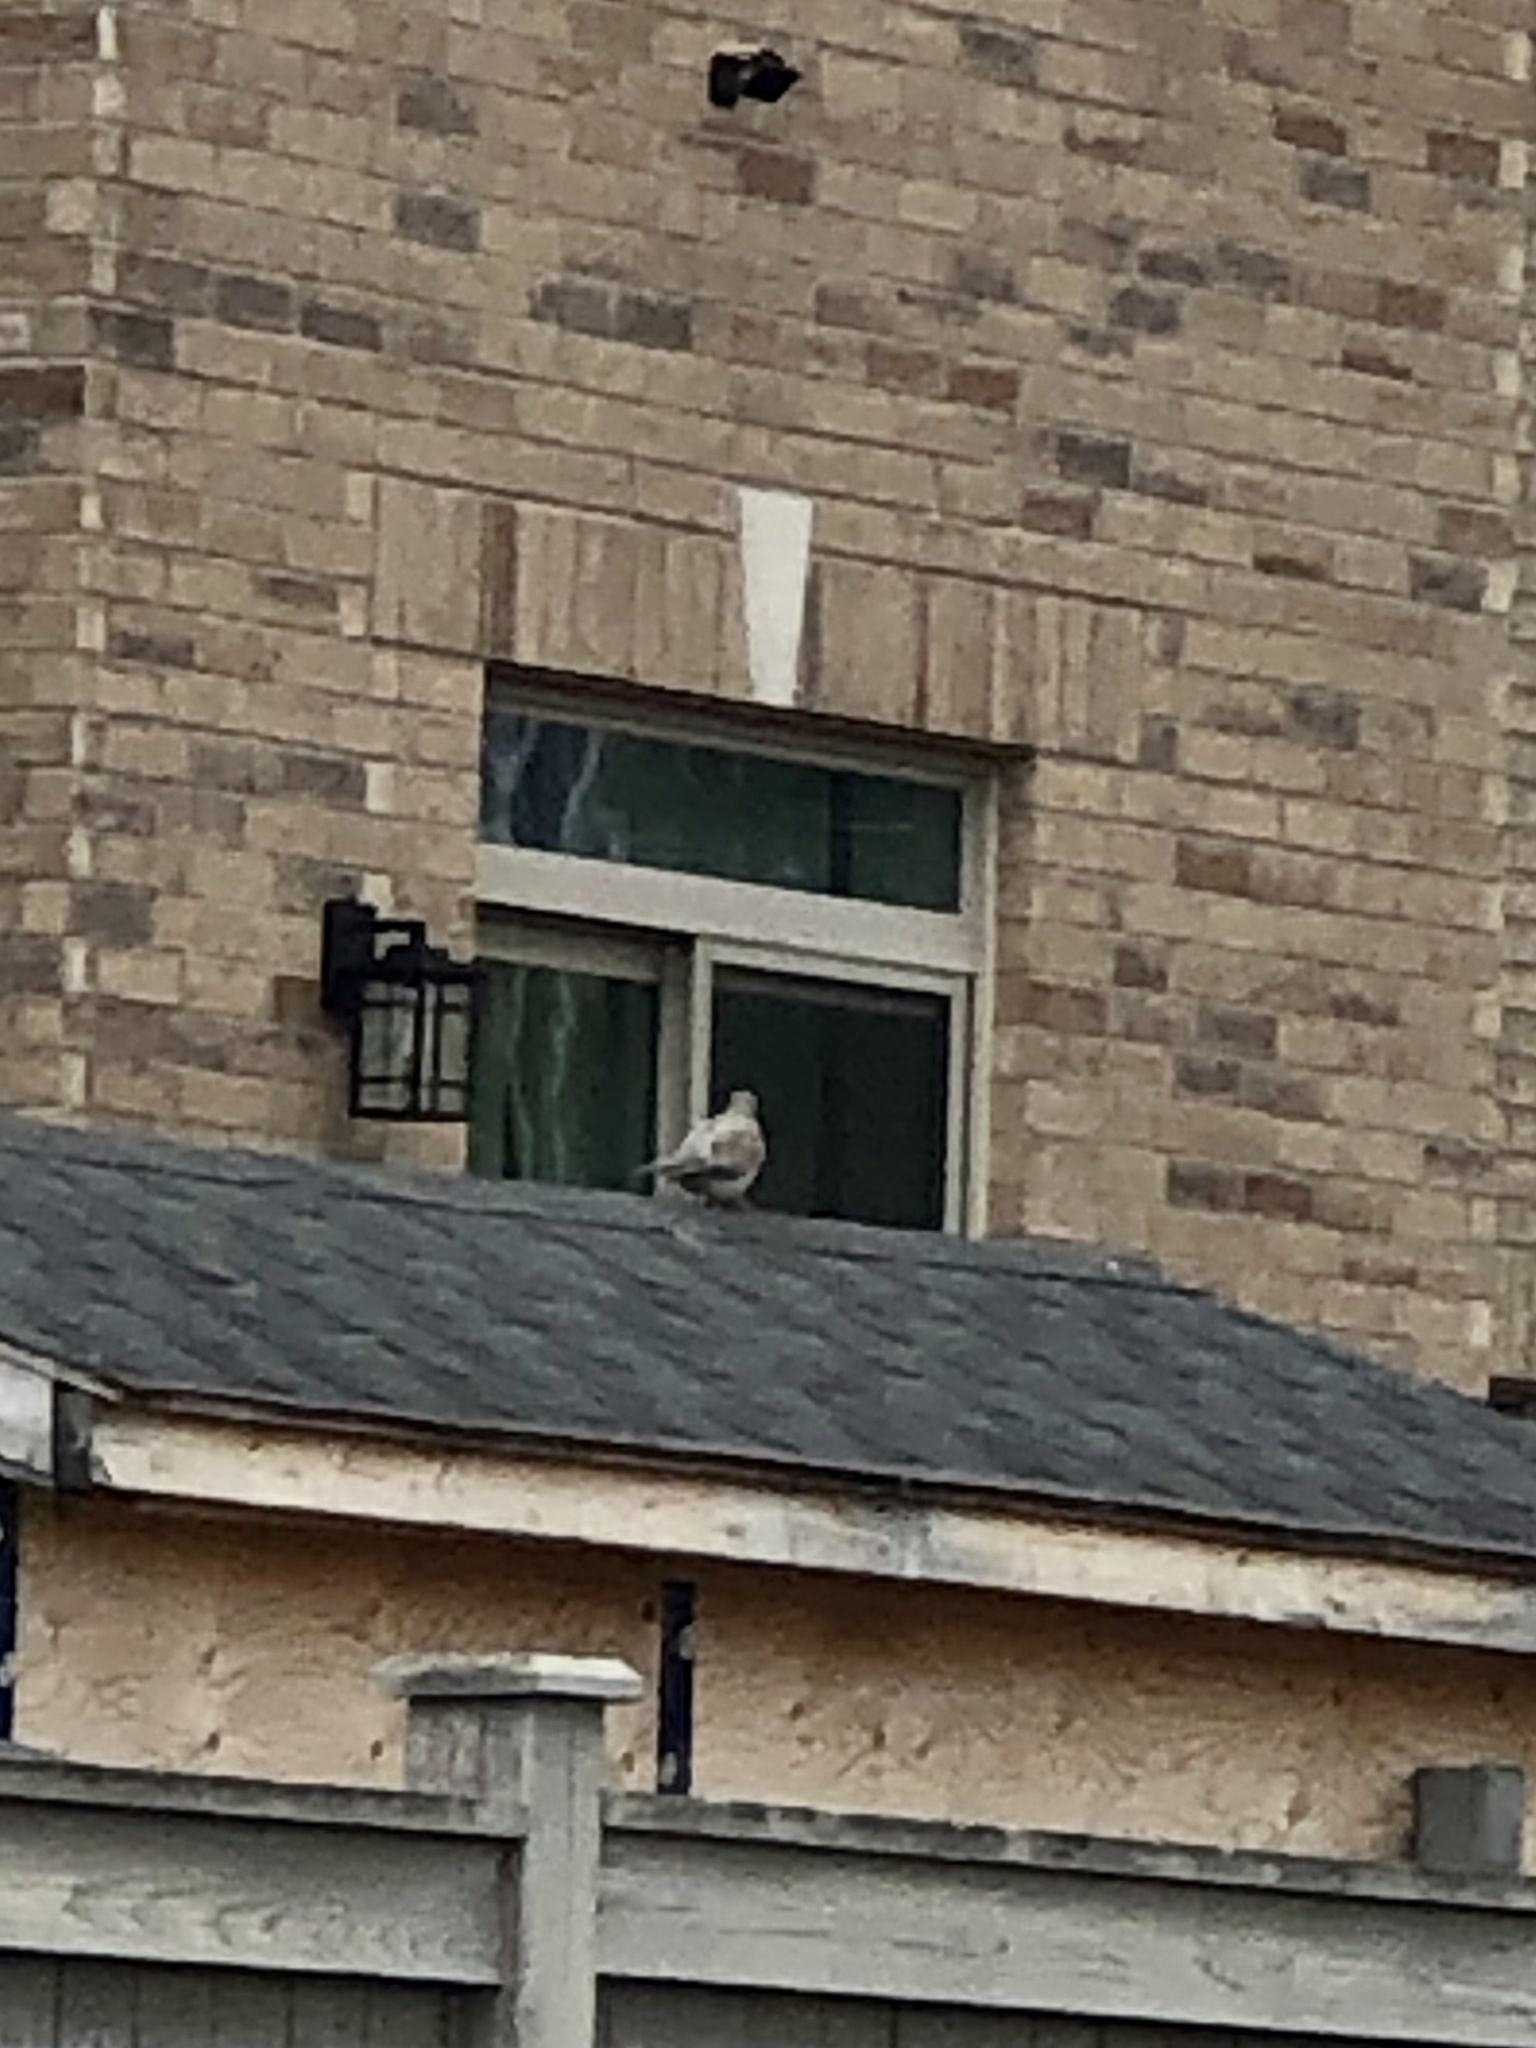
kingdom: Animalia
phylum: Chordata
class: Aves
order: Columbiformes
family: Columbidae
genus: Zenaida
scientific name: Zenaida macroura
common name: Mourning dove
